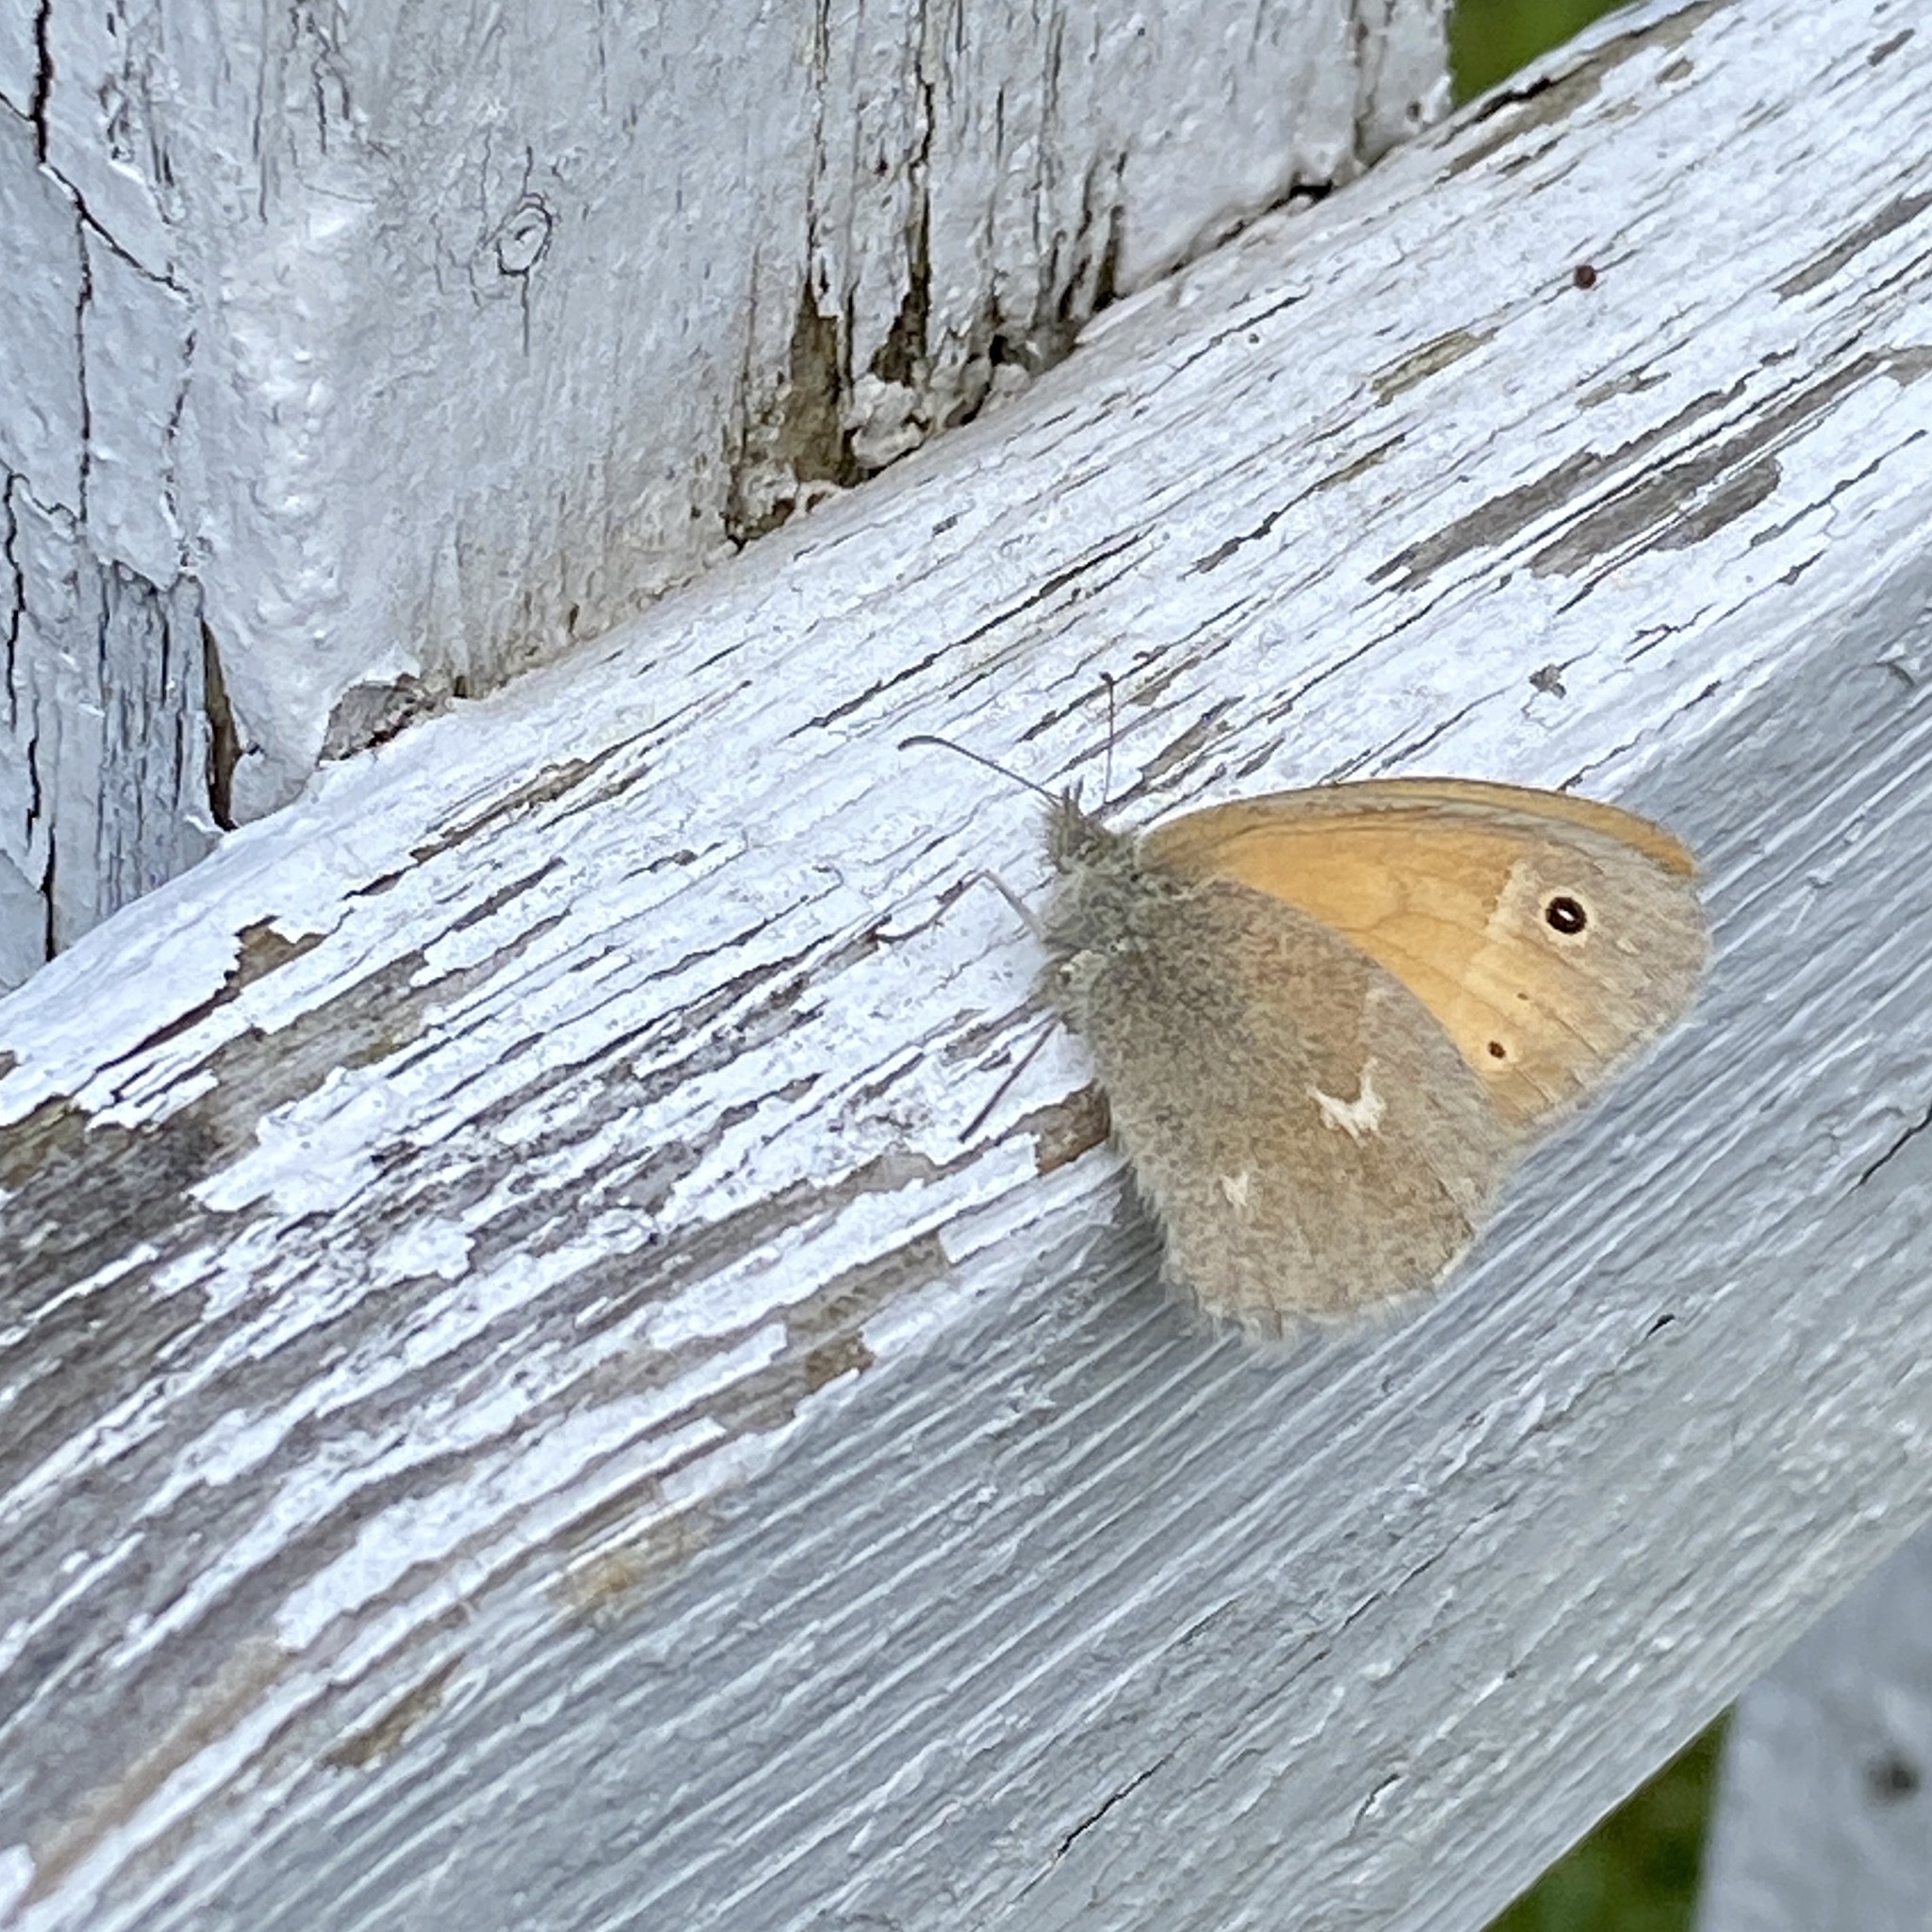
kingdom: Animalia
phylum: Arthropoda
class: Insecta
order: Lepidoptera
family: Nymphalidae
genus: Coenonympha
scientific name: Coenonympha california
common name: Common ringlet
